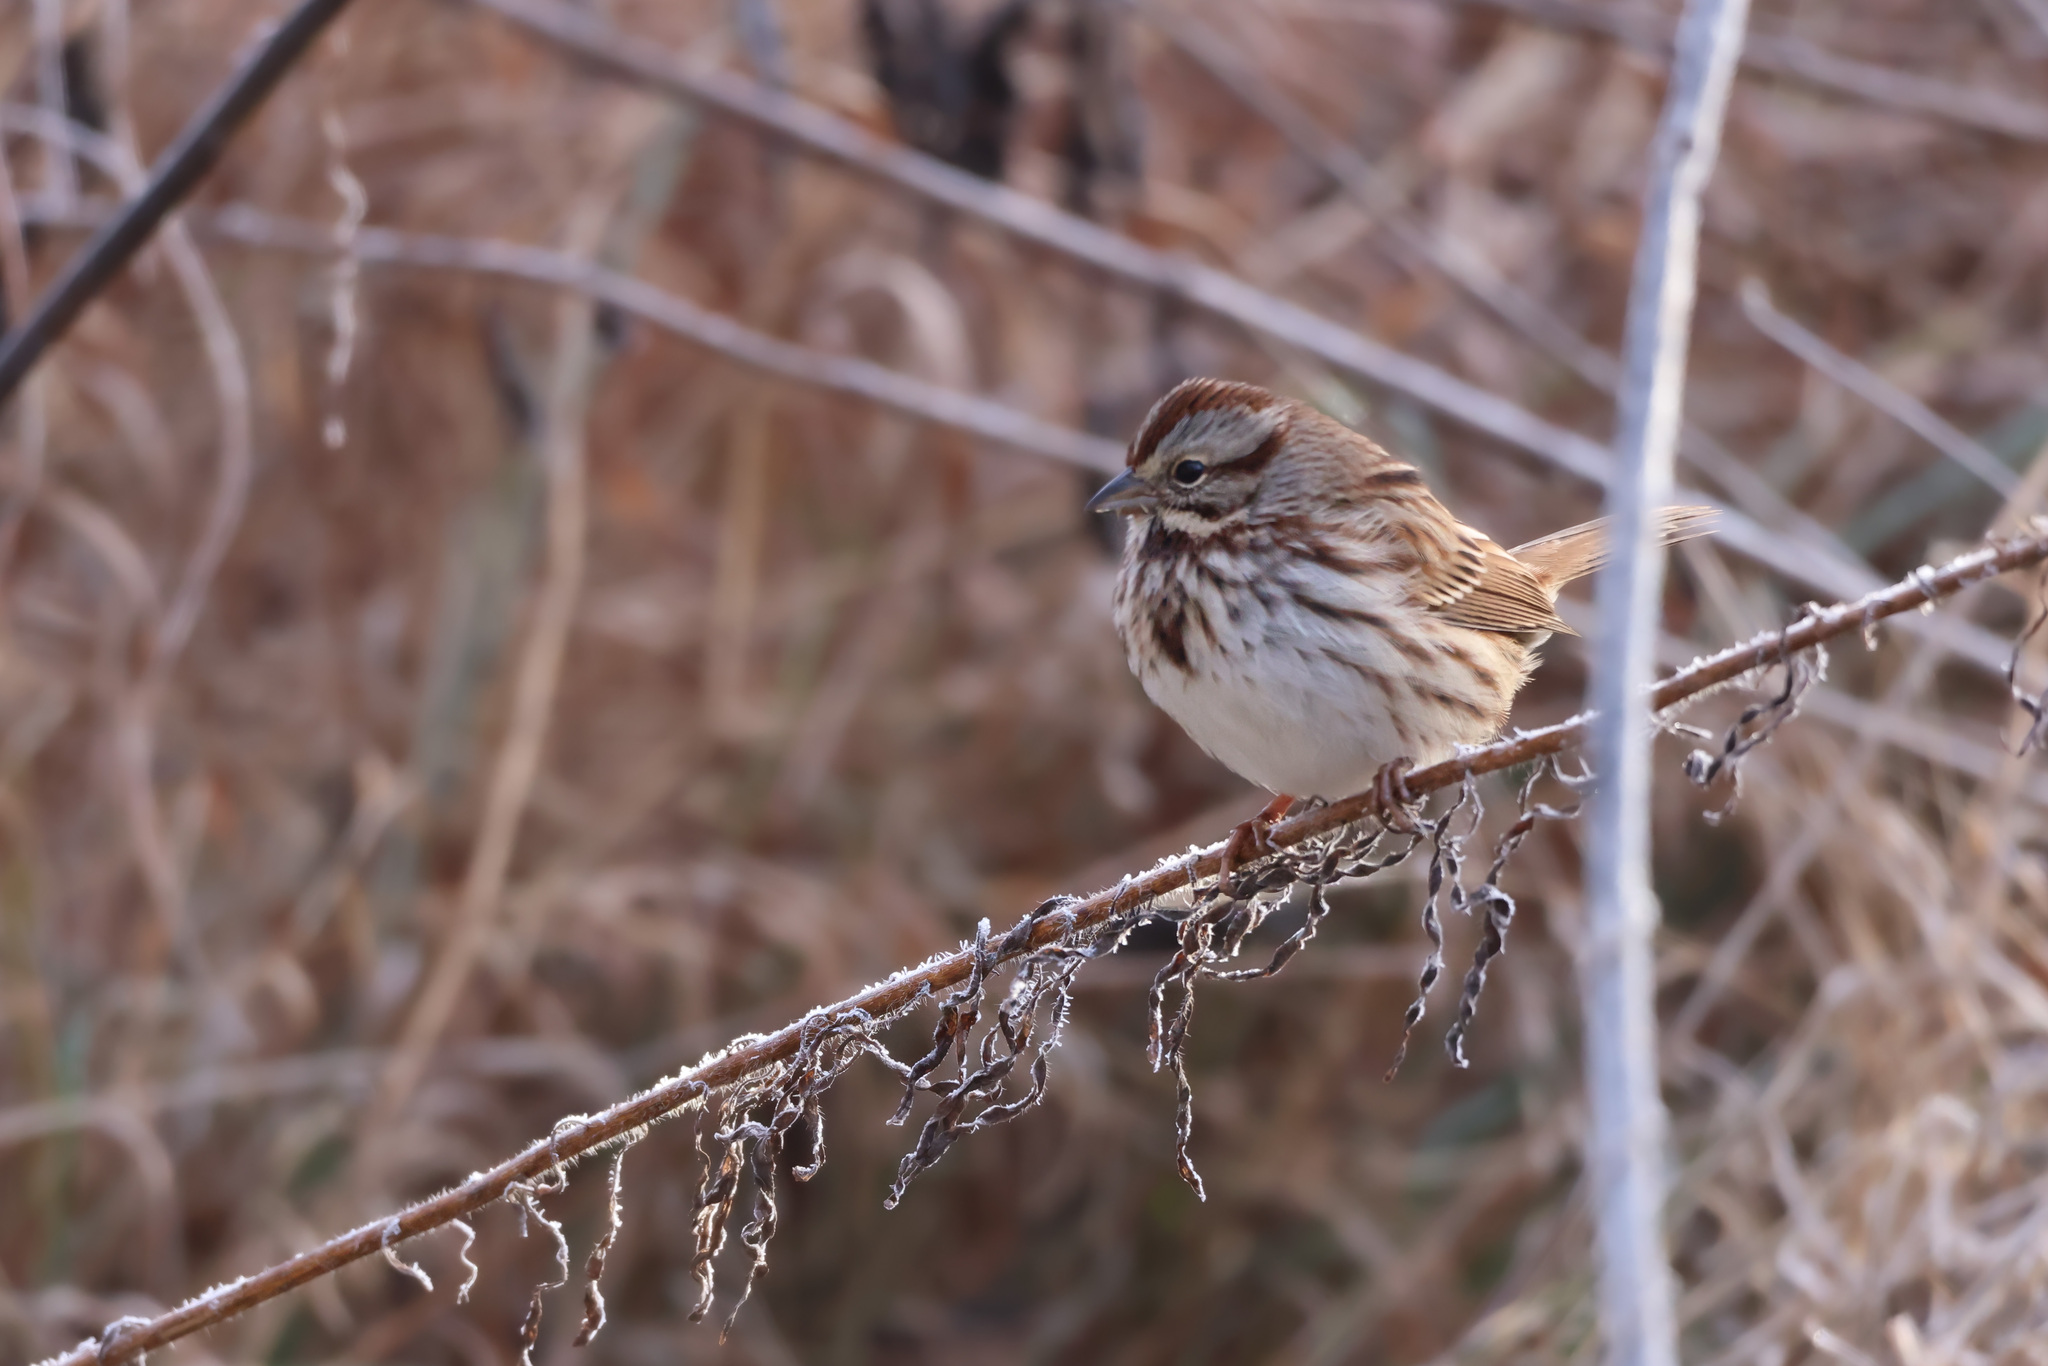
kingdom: Animalia
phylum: Chordata
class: Aves
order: Passeriformes
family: Passerellidae
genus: Melospiza
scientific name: Melospiza melodia
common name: Song sparrow
